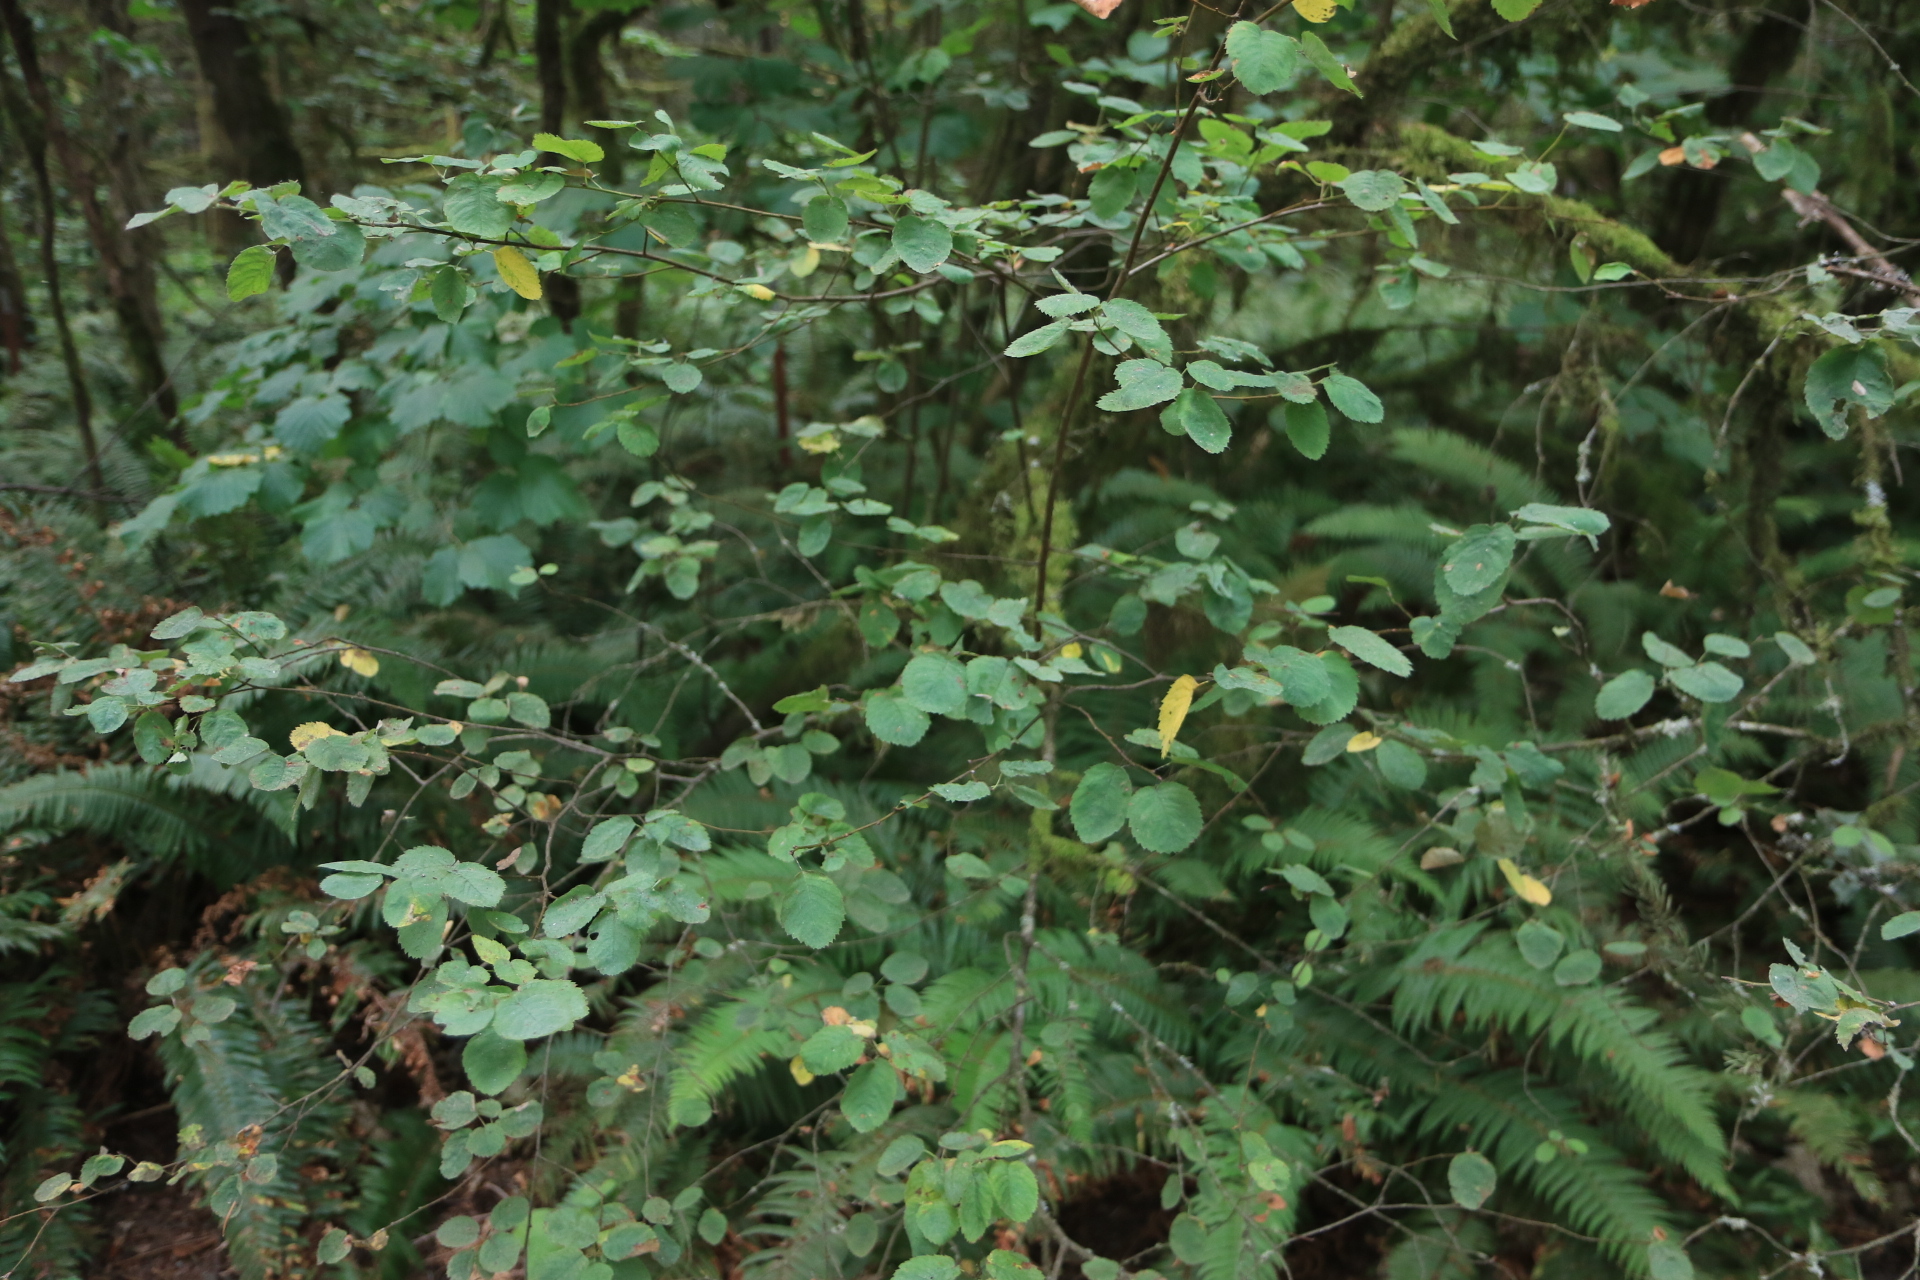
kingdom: Plantae
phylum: Tracheophyta
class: Magnoliopsida
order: Rosales
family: Rosaceae
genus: Amelanchier
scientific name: Amelanchier alnifolia
